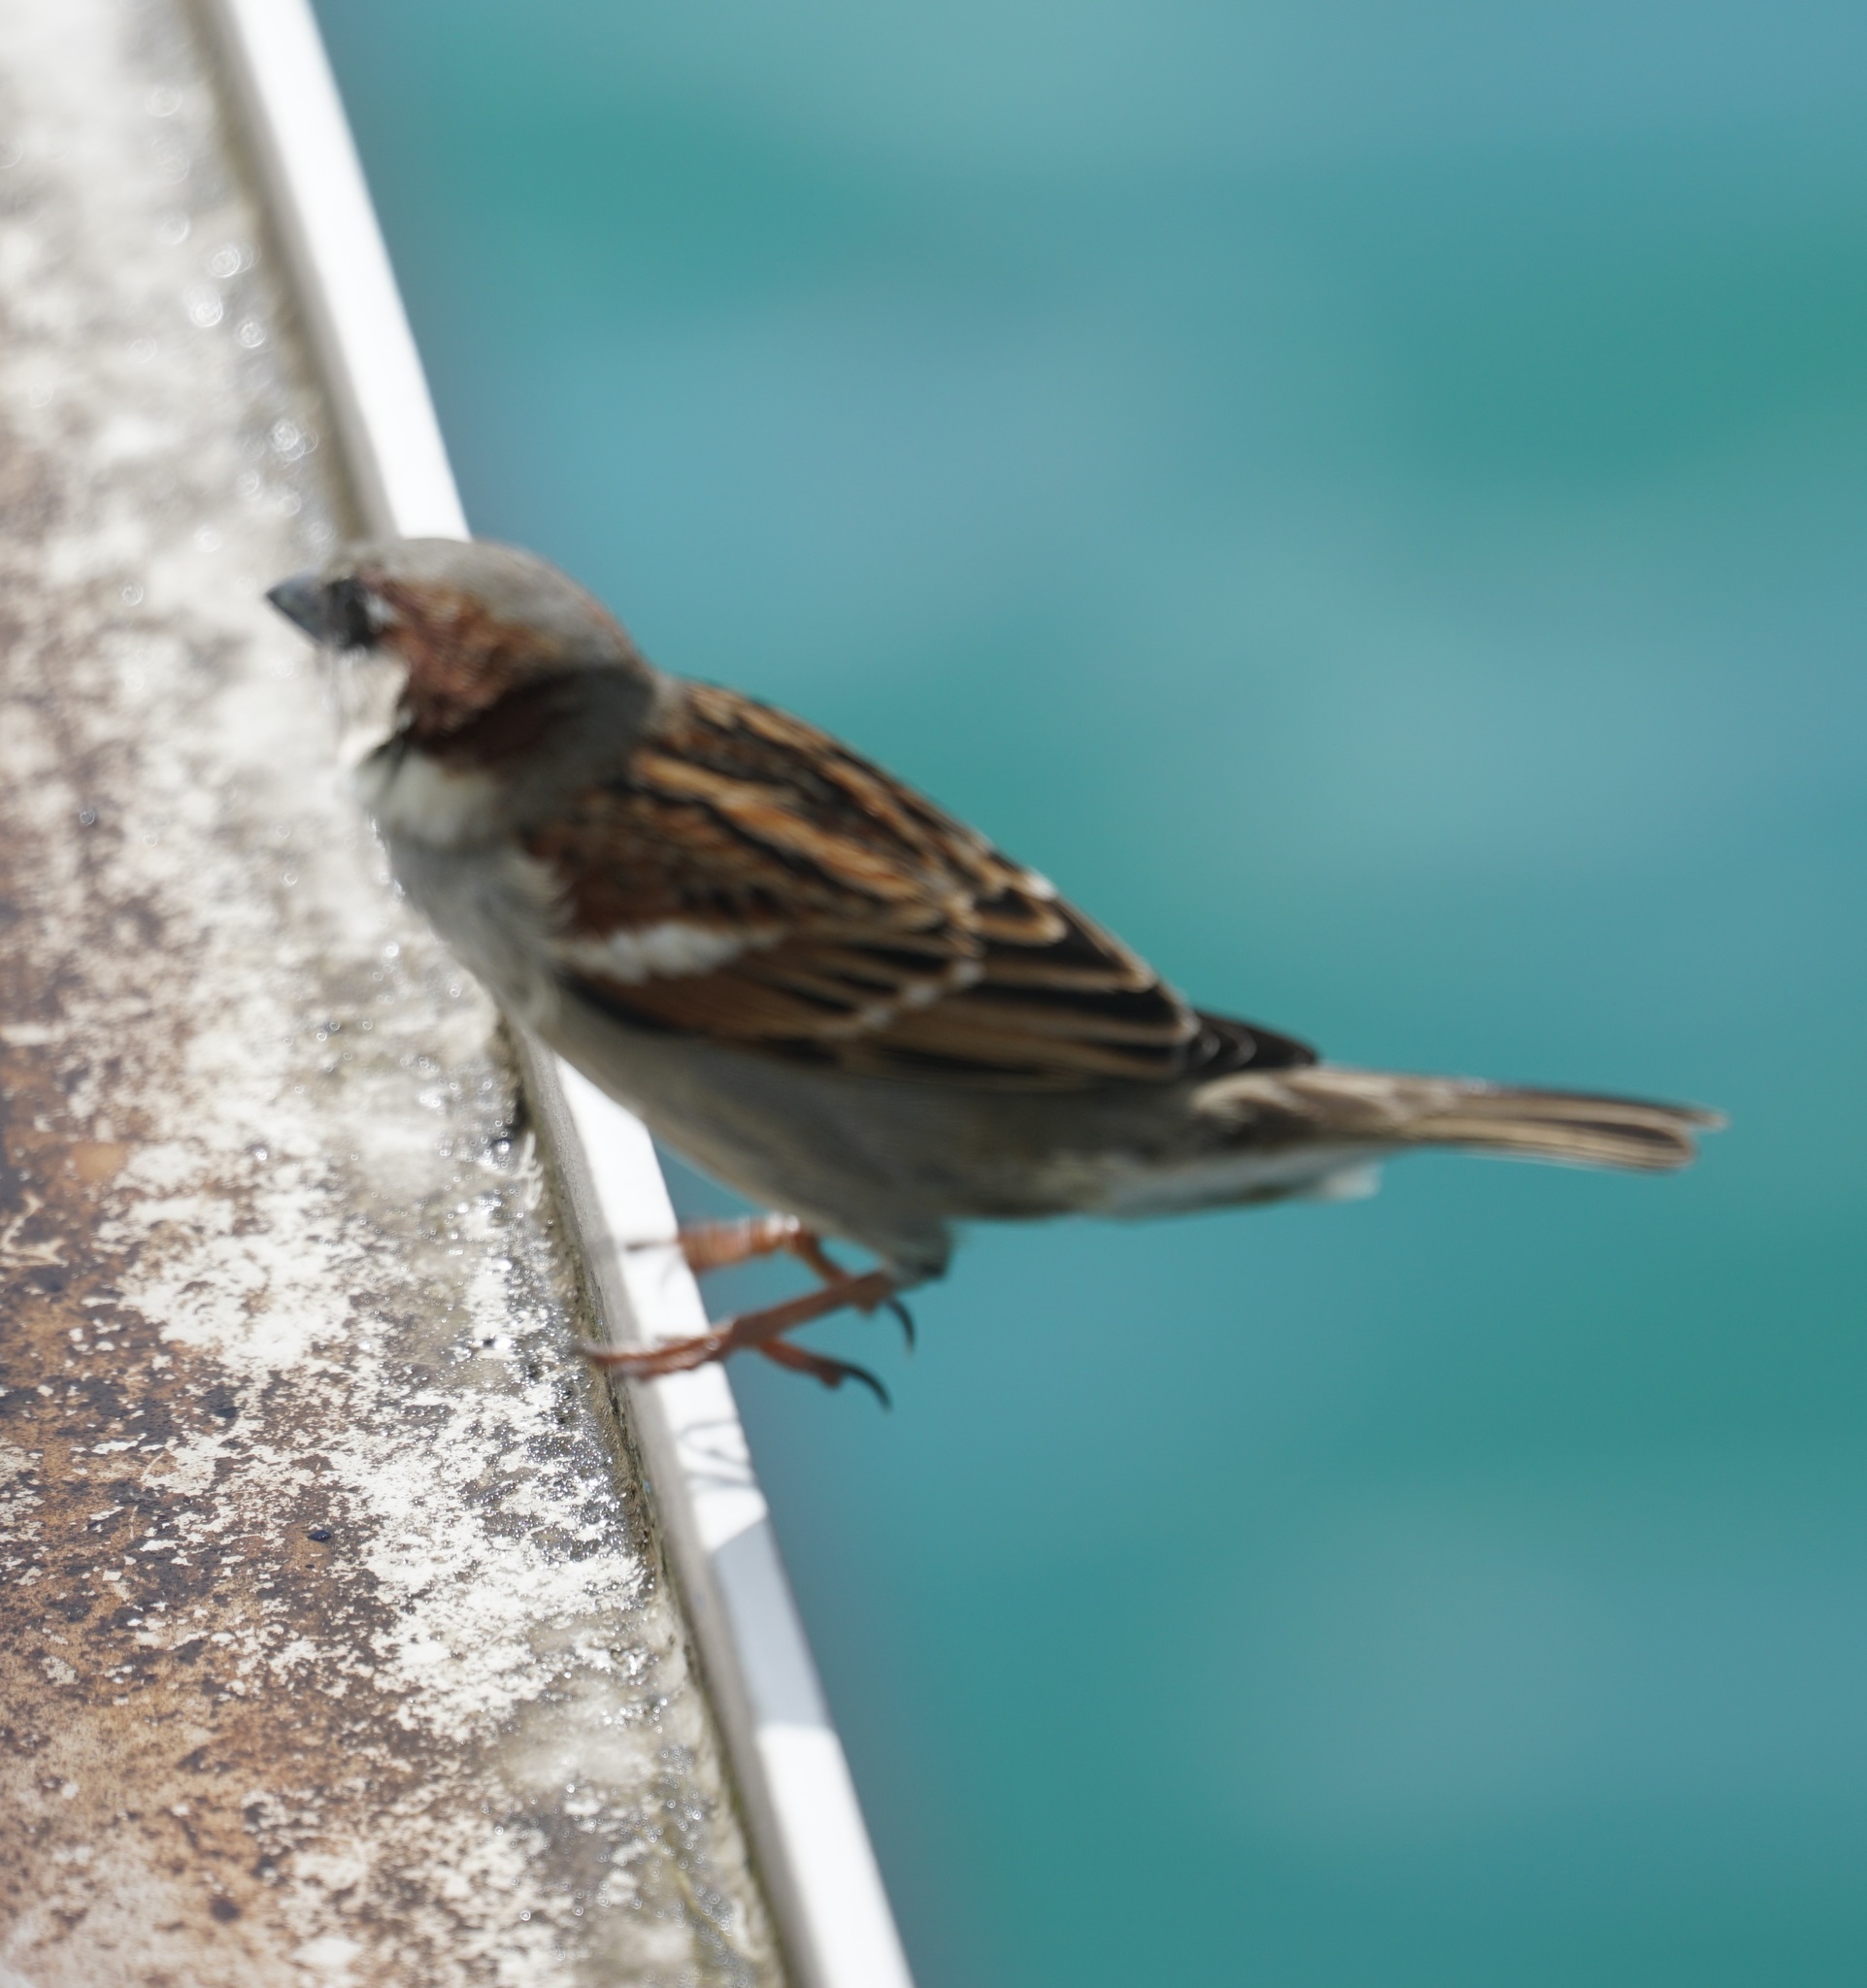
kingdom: Animalia
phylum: Chordata
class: Aves
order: Passeriformes
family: Passeridae
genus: Passer
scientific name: Passer domesticus
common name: House sparrow
